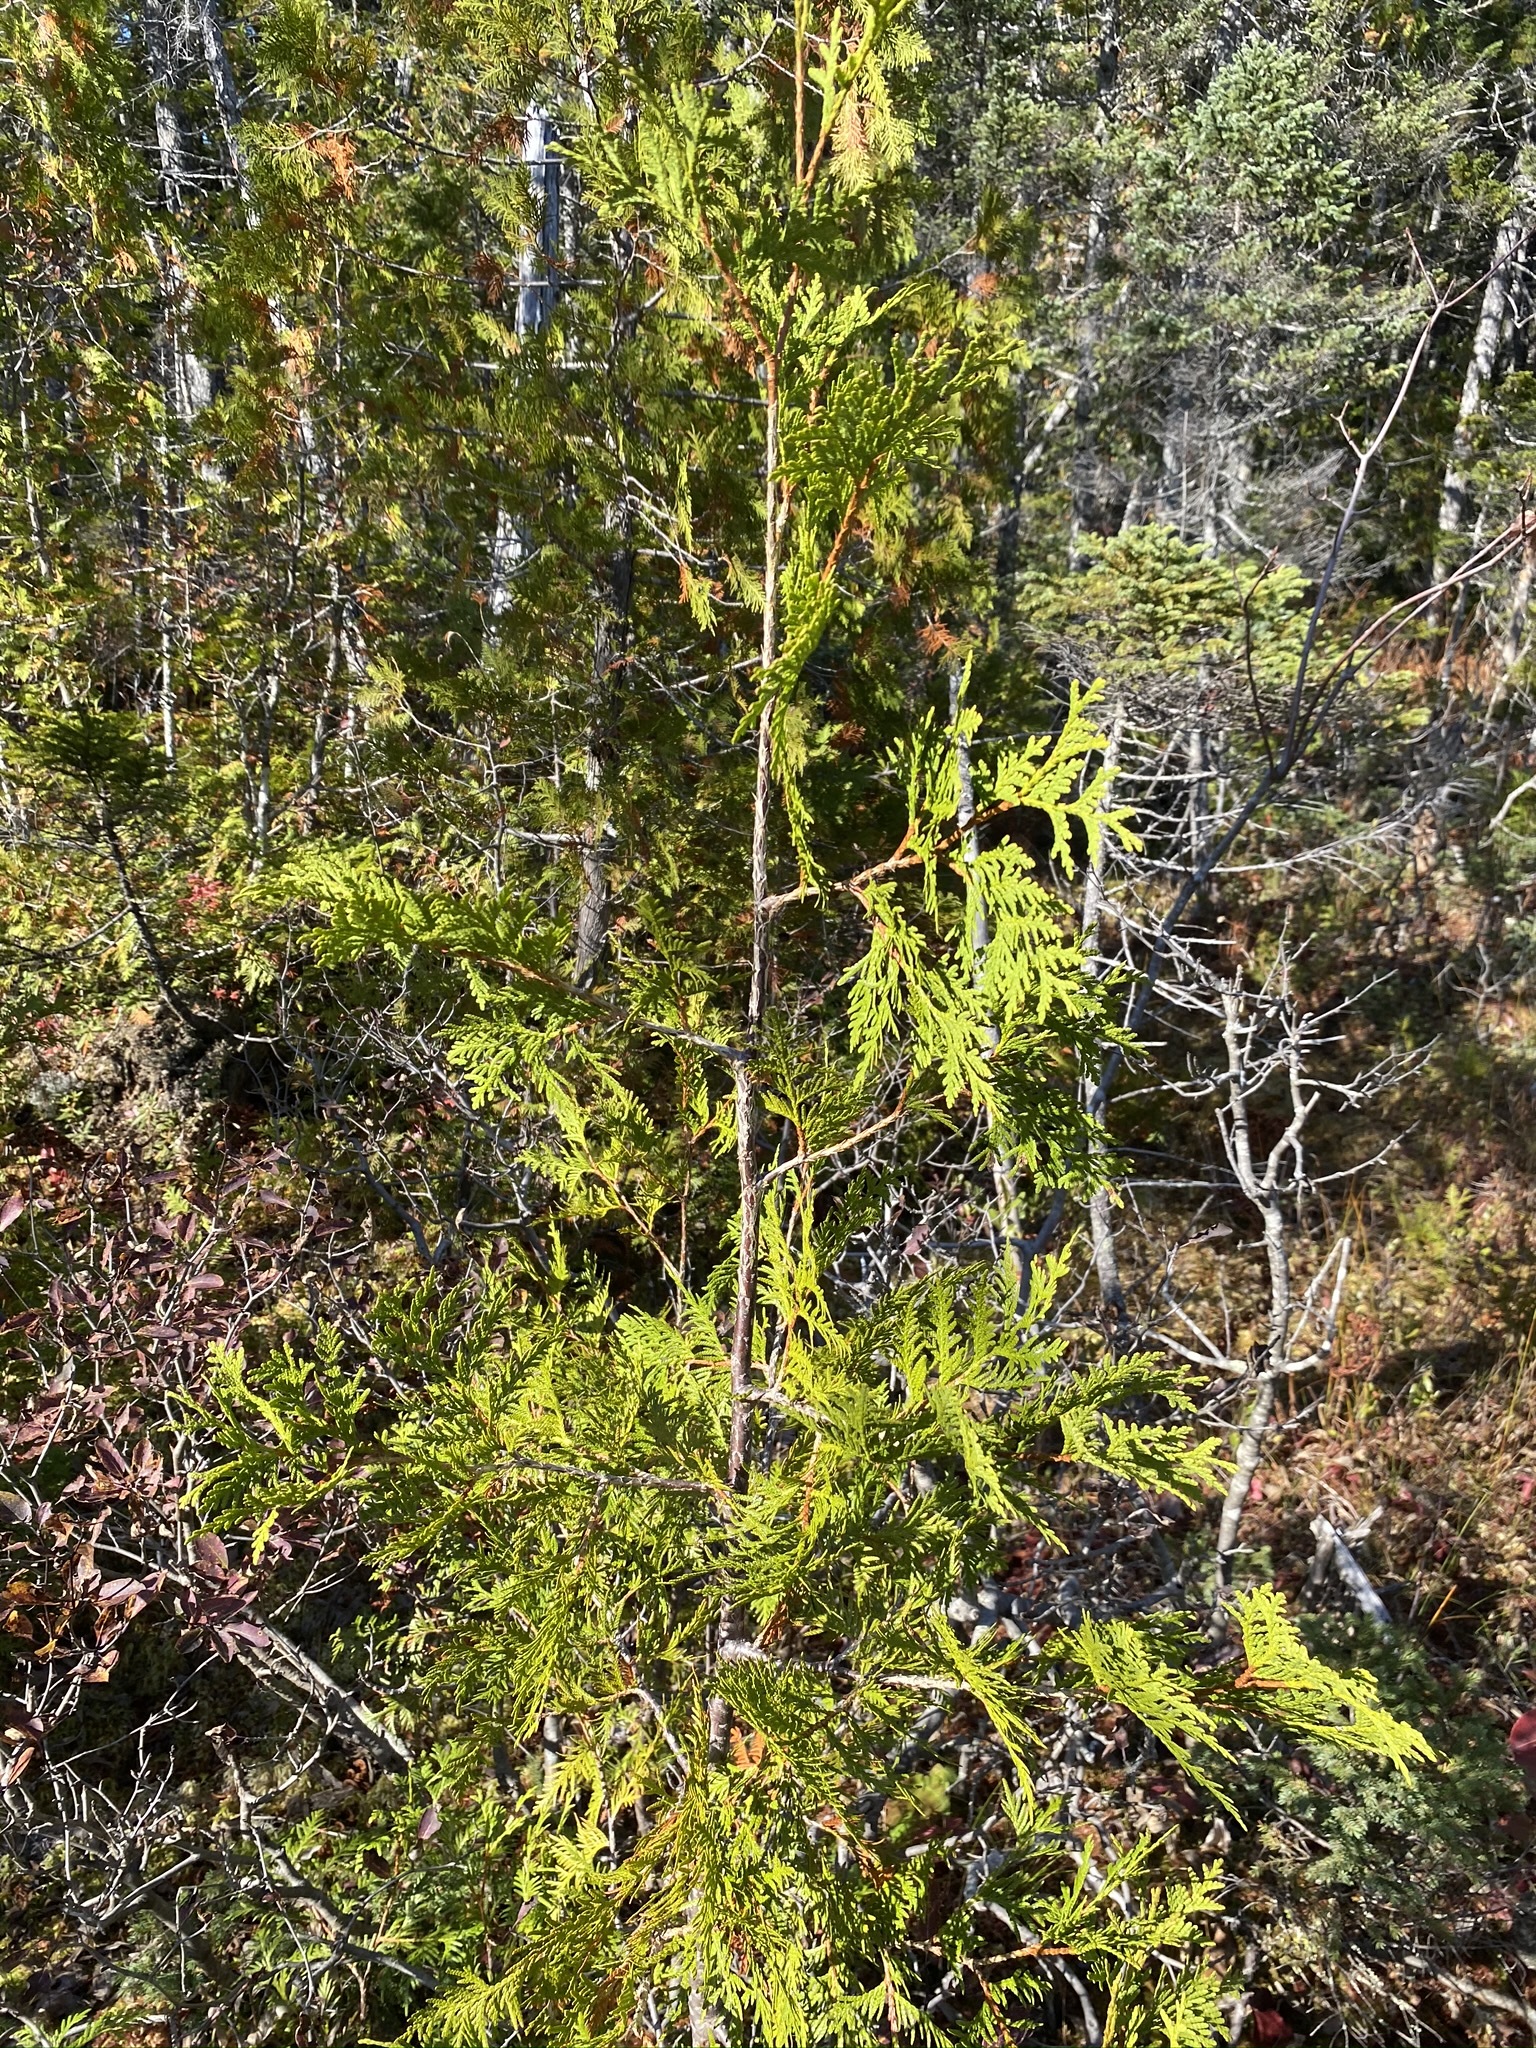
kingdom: Plantae
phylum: Tracheophyta
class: Pinopsida
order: Pinales
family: Cupressaceae
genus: Thuja
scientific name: Thuja occidentalis
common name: Northern white-cedar
